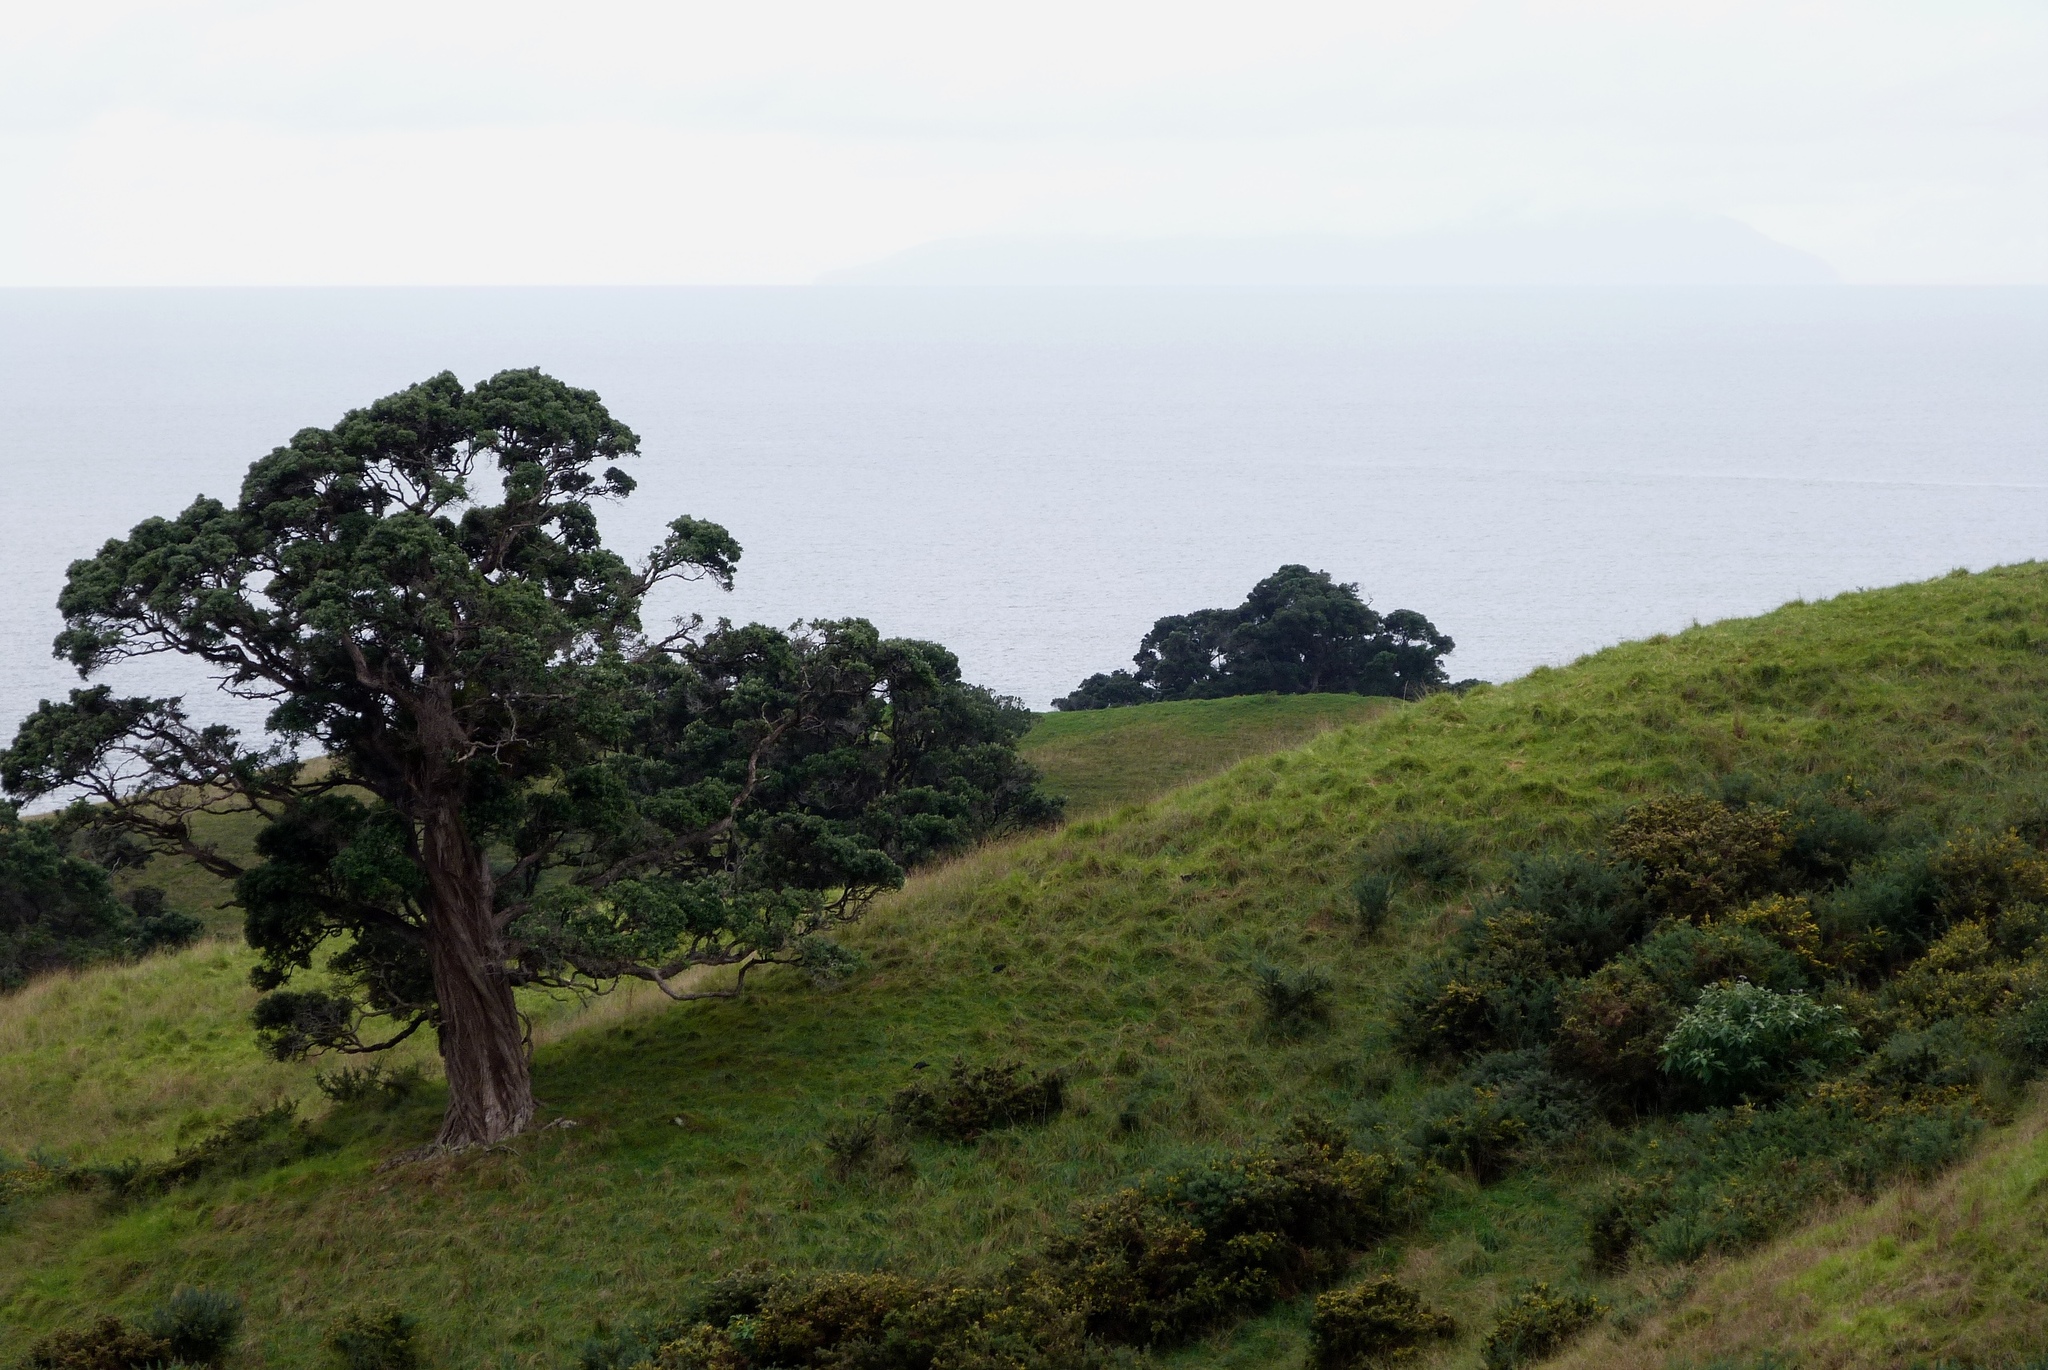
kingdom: Plantae
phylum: Tracheophyta
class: Magnoliopsida
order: Myrtales
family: Myrtaceae
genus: Metrosideros
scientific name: Metrosideros excelsa
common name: New zealand christmastree
